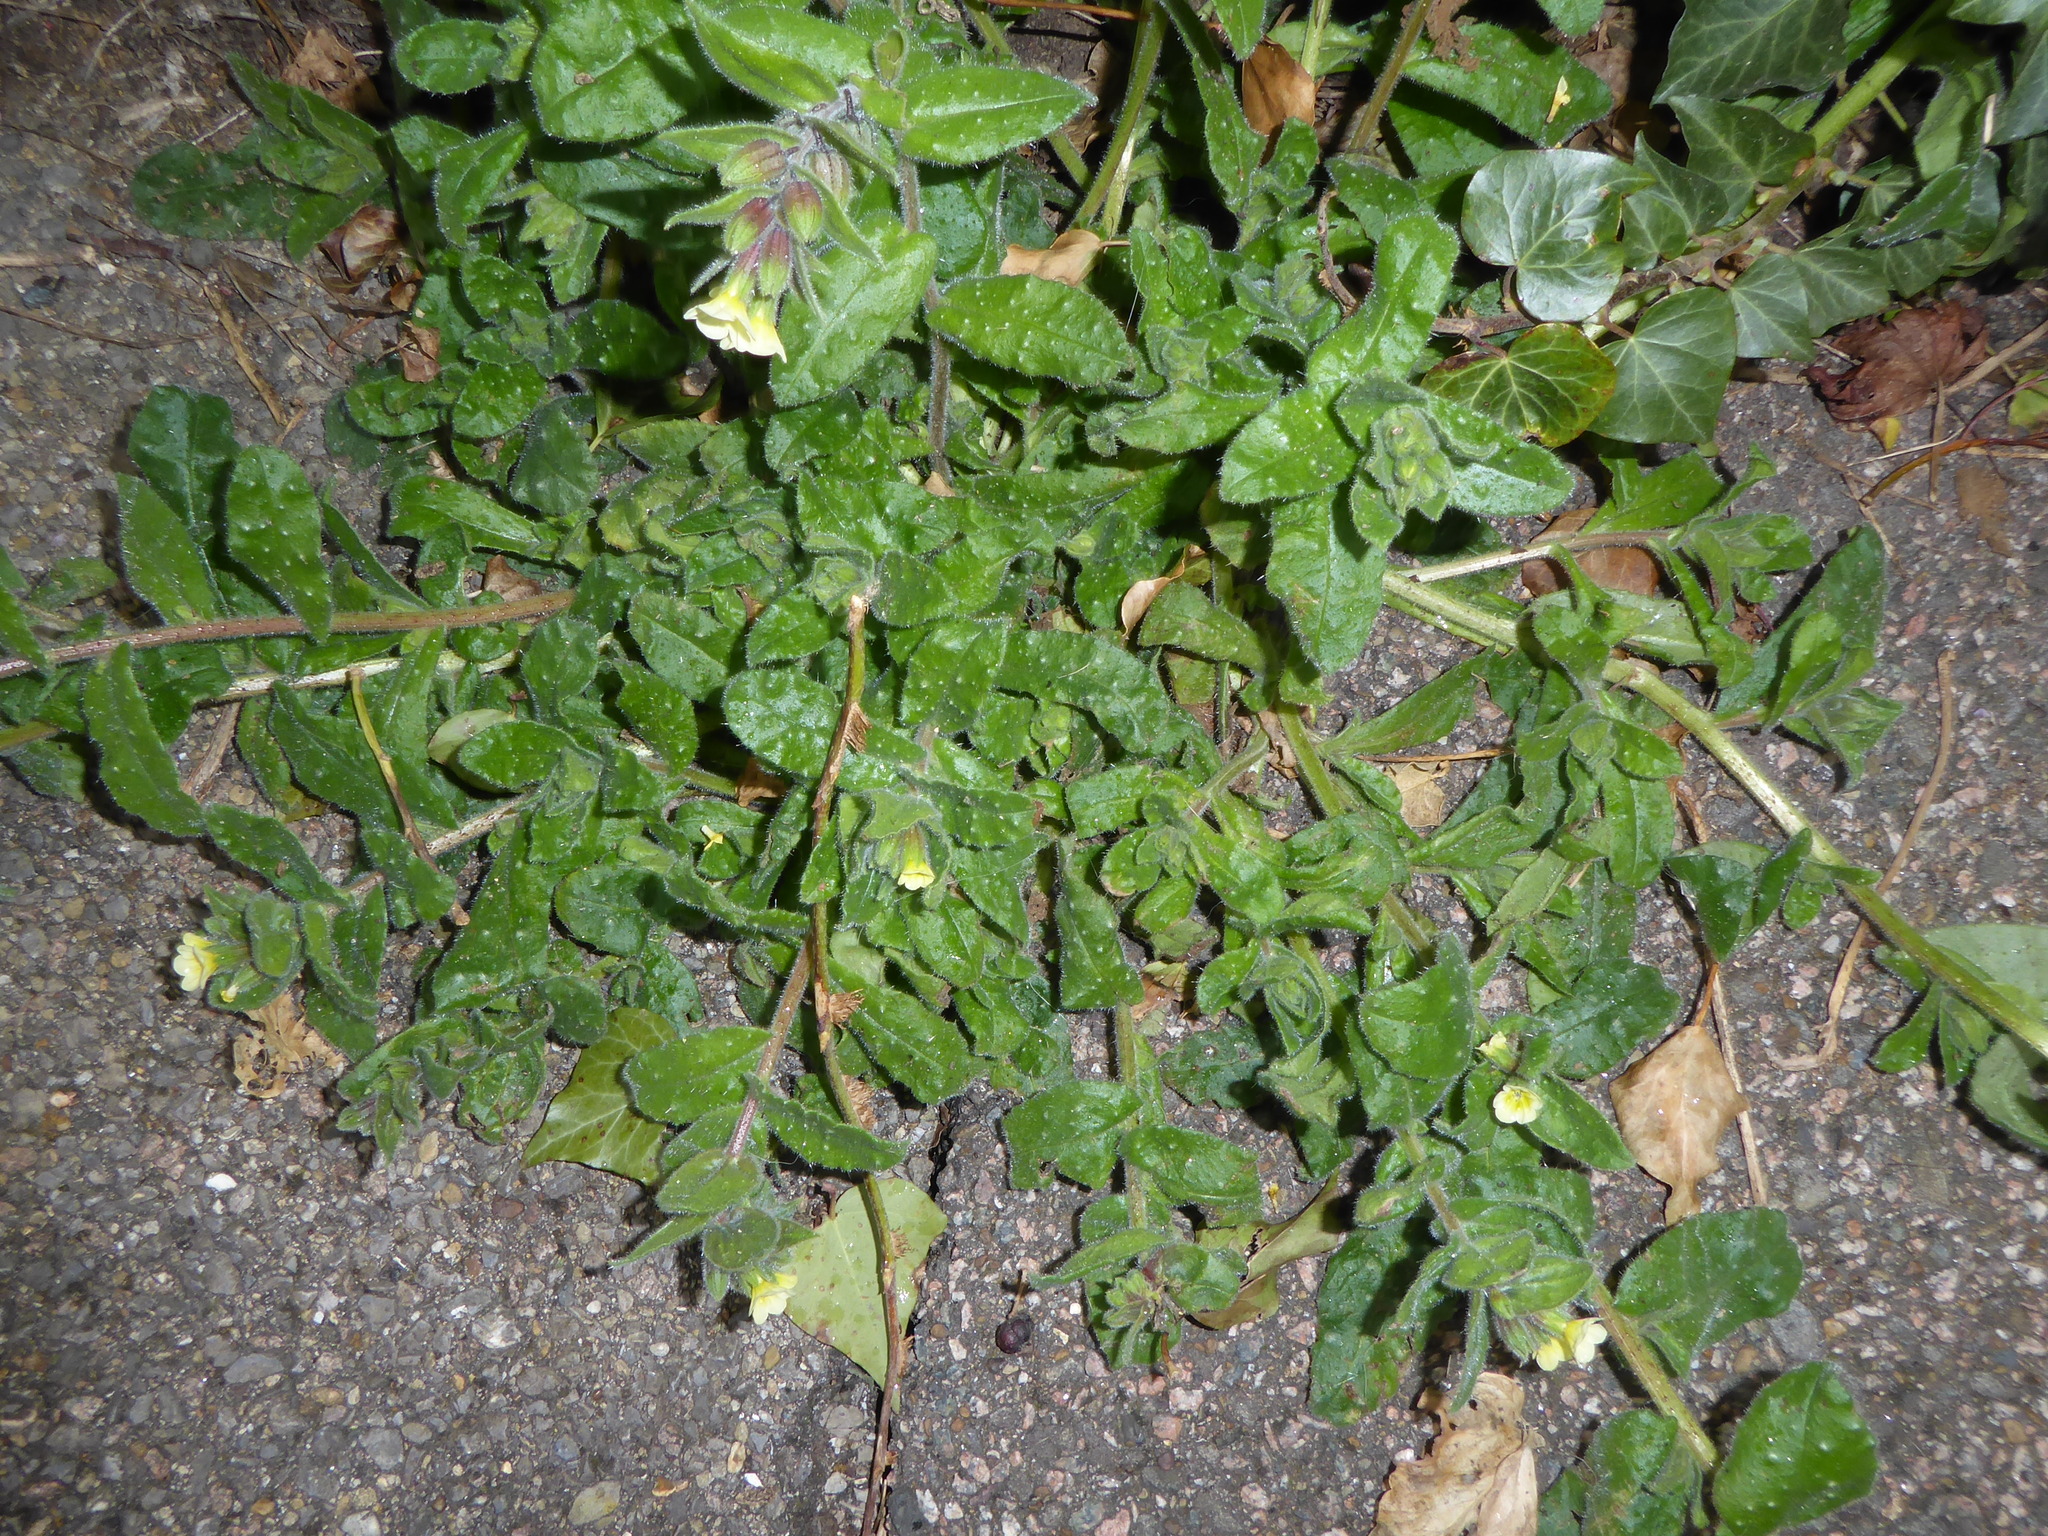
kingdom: Plantae
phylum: Tracheophyta
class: Magnoliopsida
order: Boraginales
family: Boraginaceae
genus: Nonea
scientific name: Nonea lutea
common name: Yellow nonea
